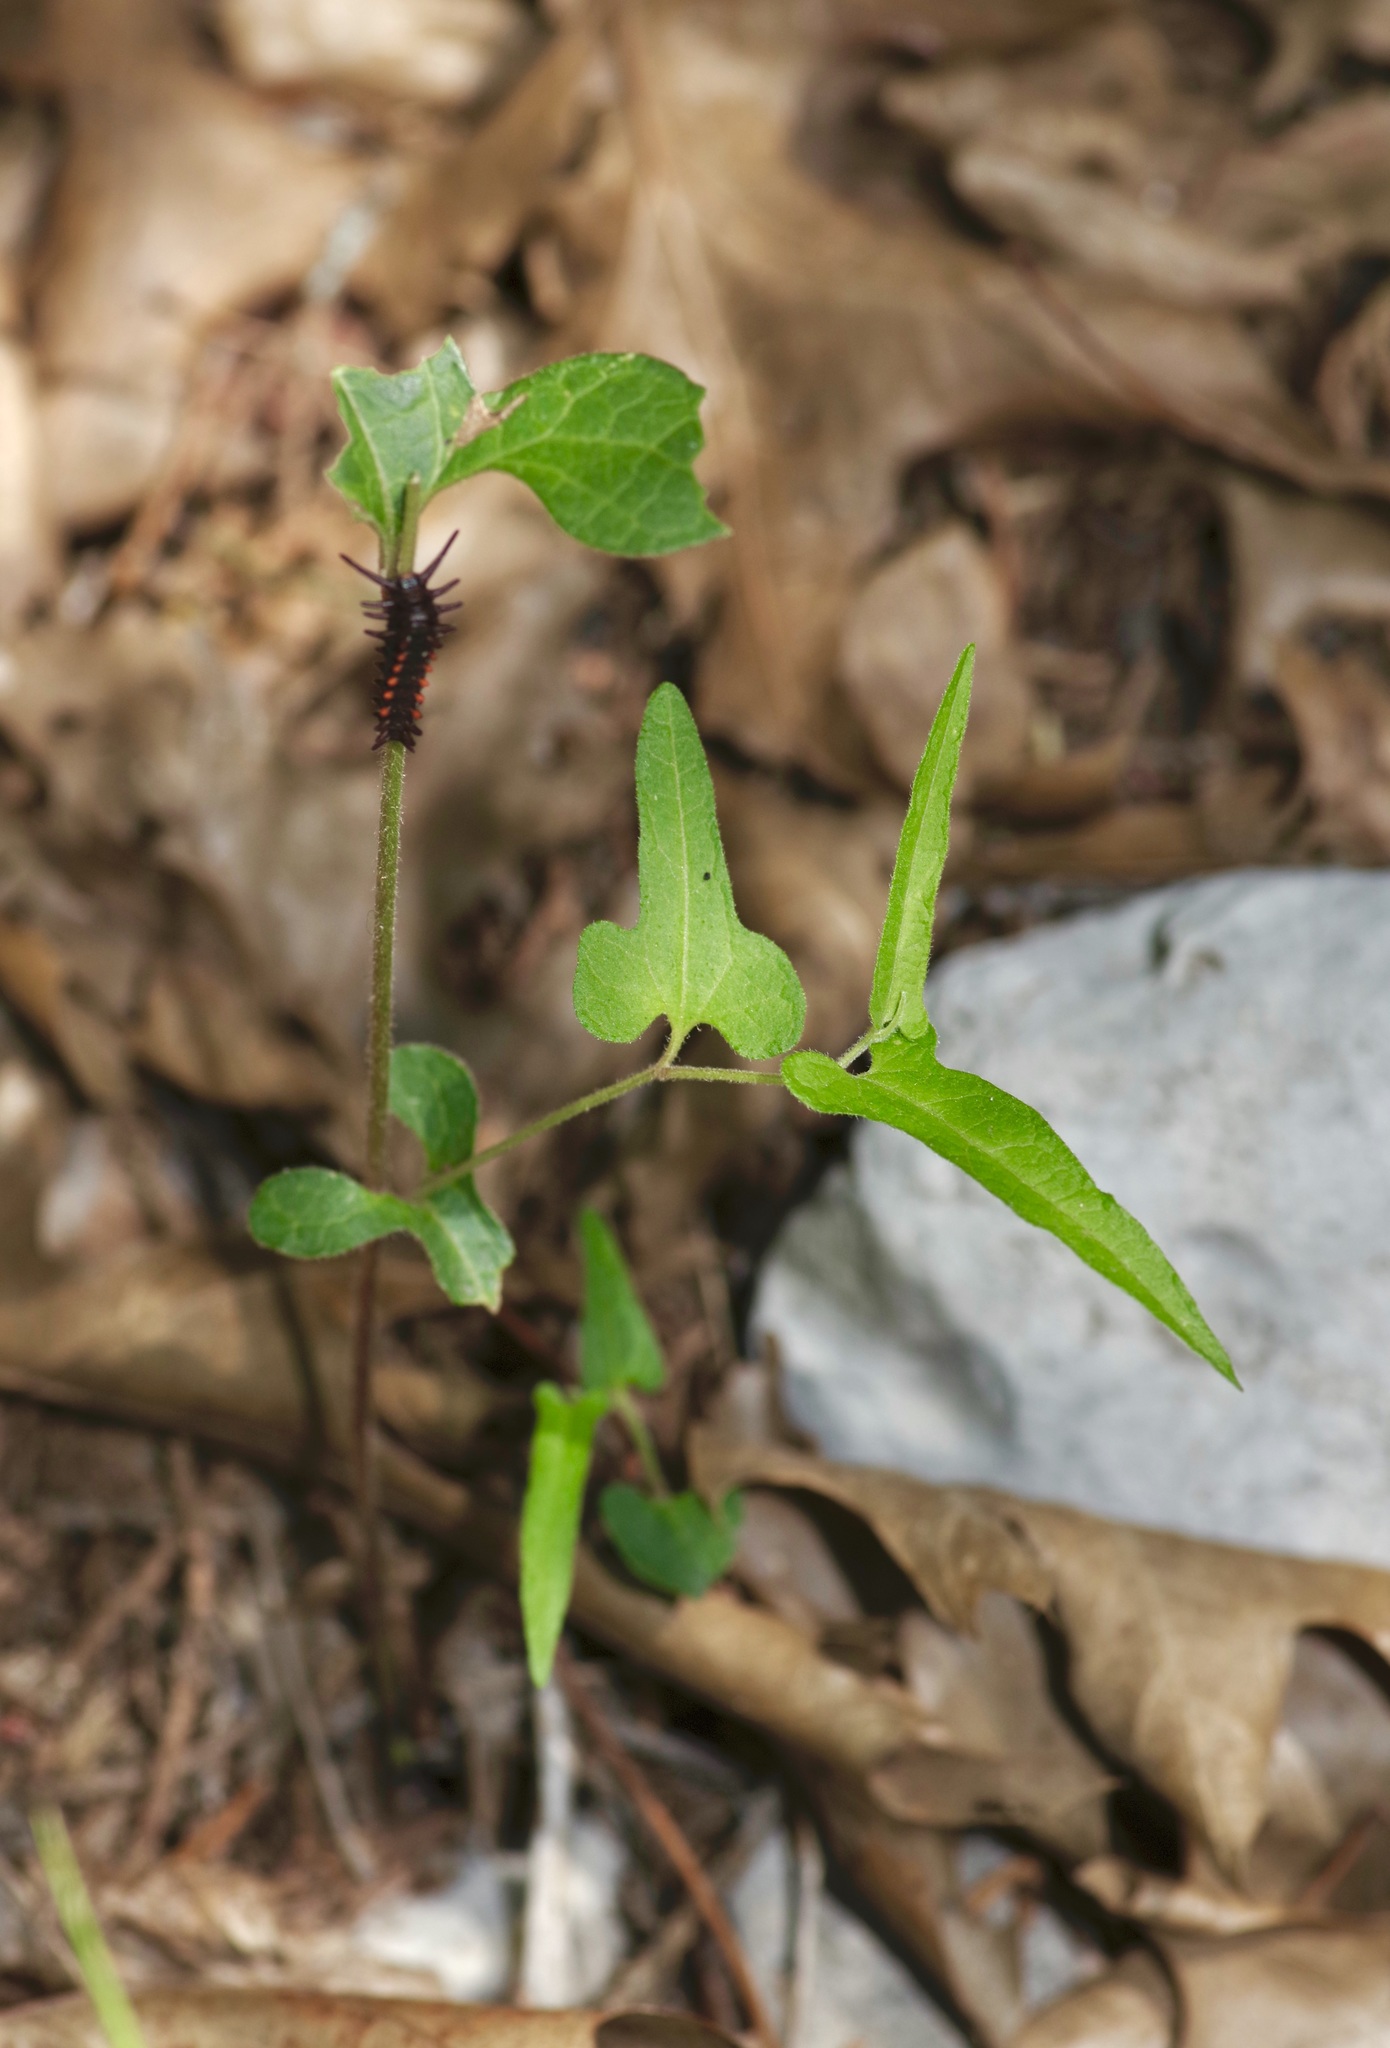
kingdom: Plantae
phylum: Tracheophyta
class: Magnoliopsida
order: Piperales
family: Aristolochiaceae
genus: Endodeca
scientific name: Endodeca serpentaria
